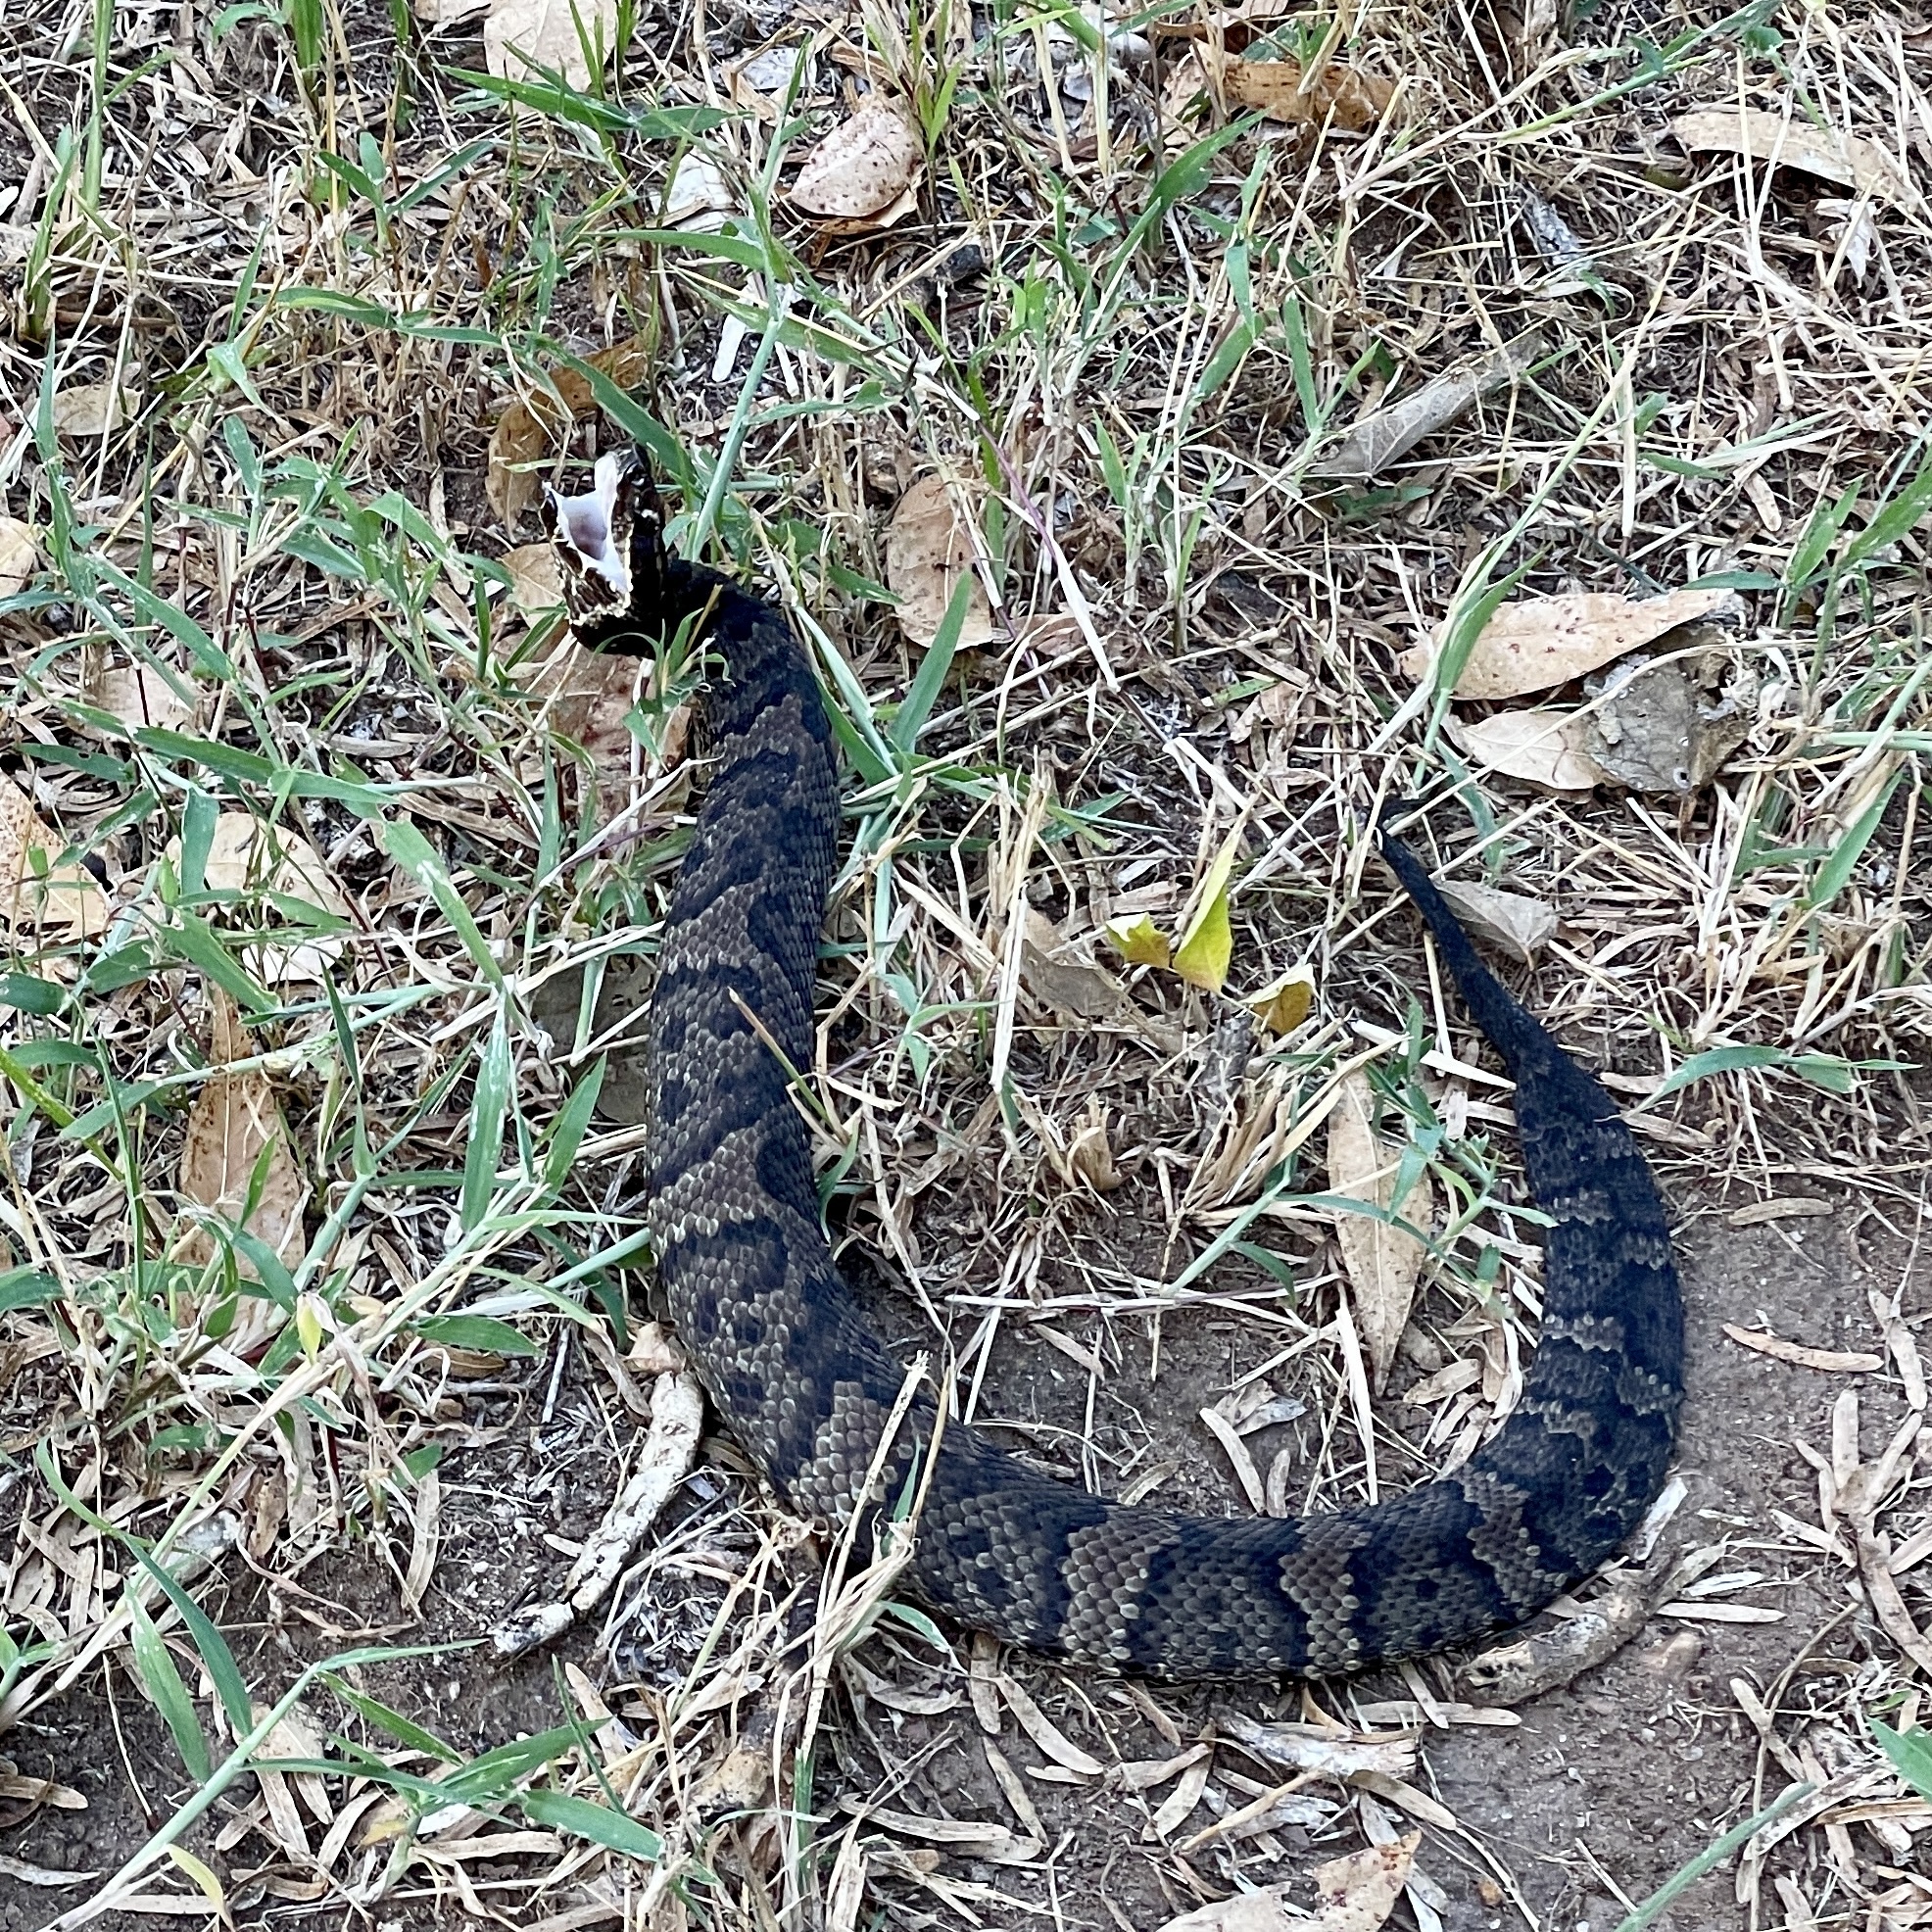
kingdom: Animalia
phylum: Chordata
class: Squamata
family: Viperidae
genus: Agkistrodon
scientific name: Agkistrodon piscivorus
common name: Cottonmouth
